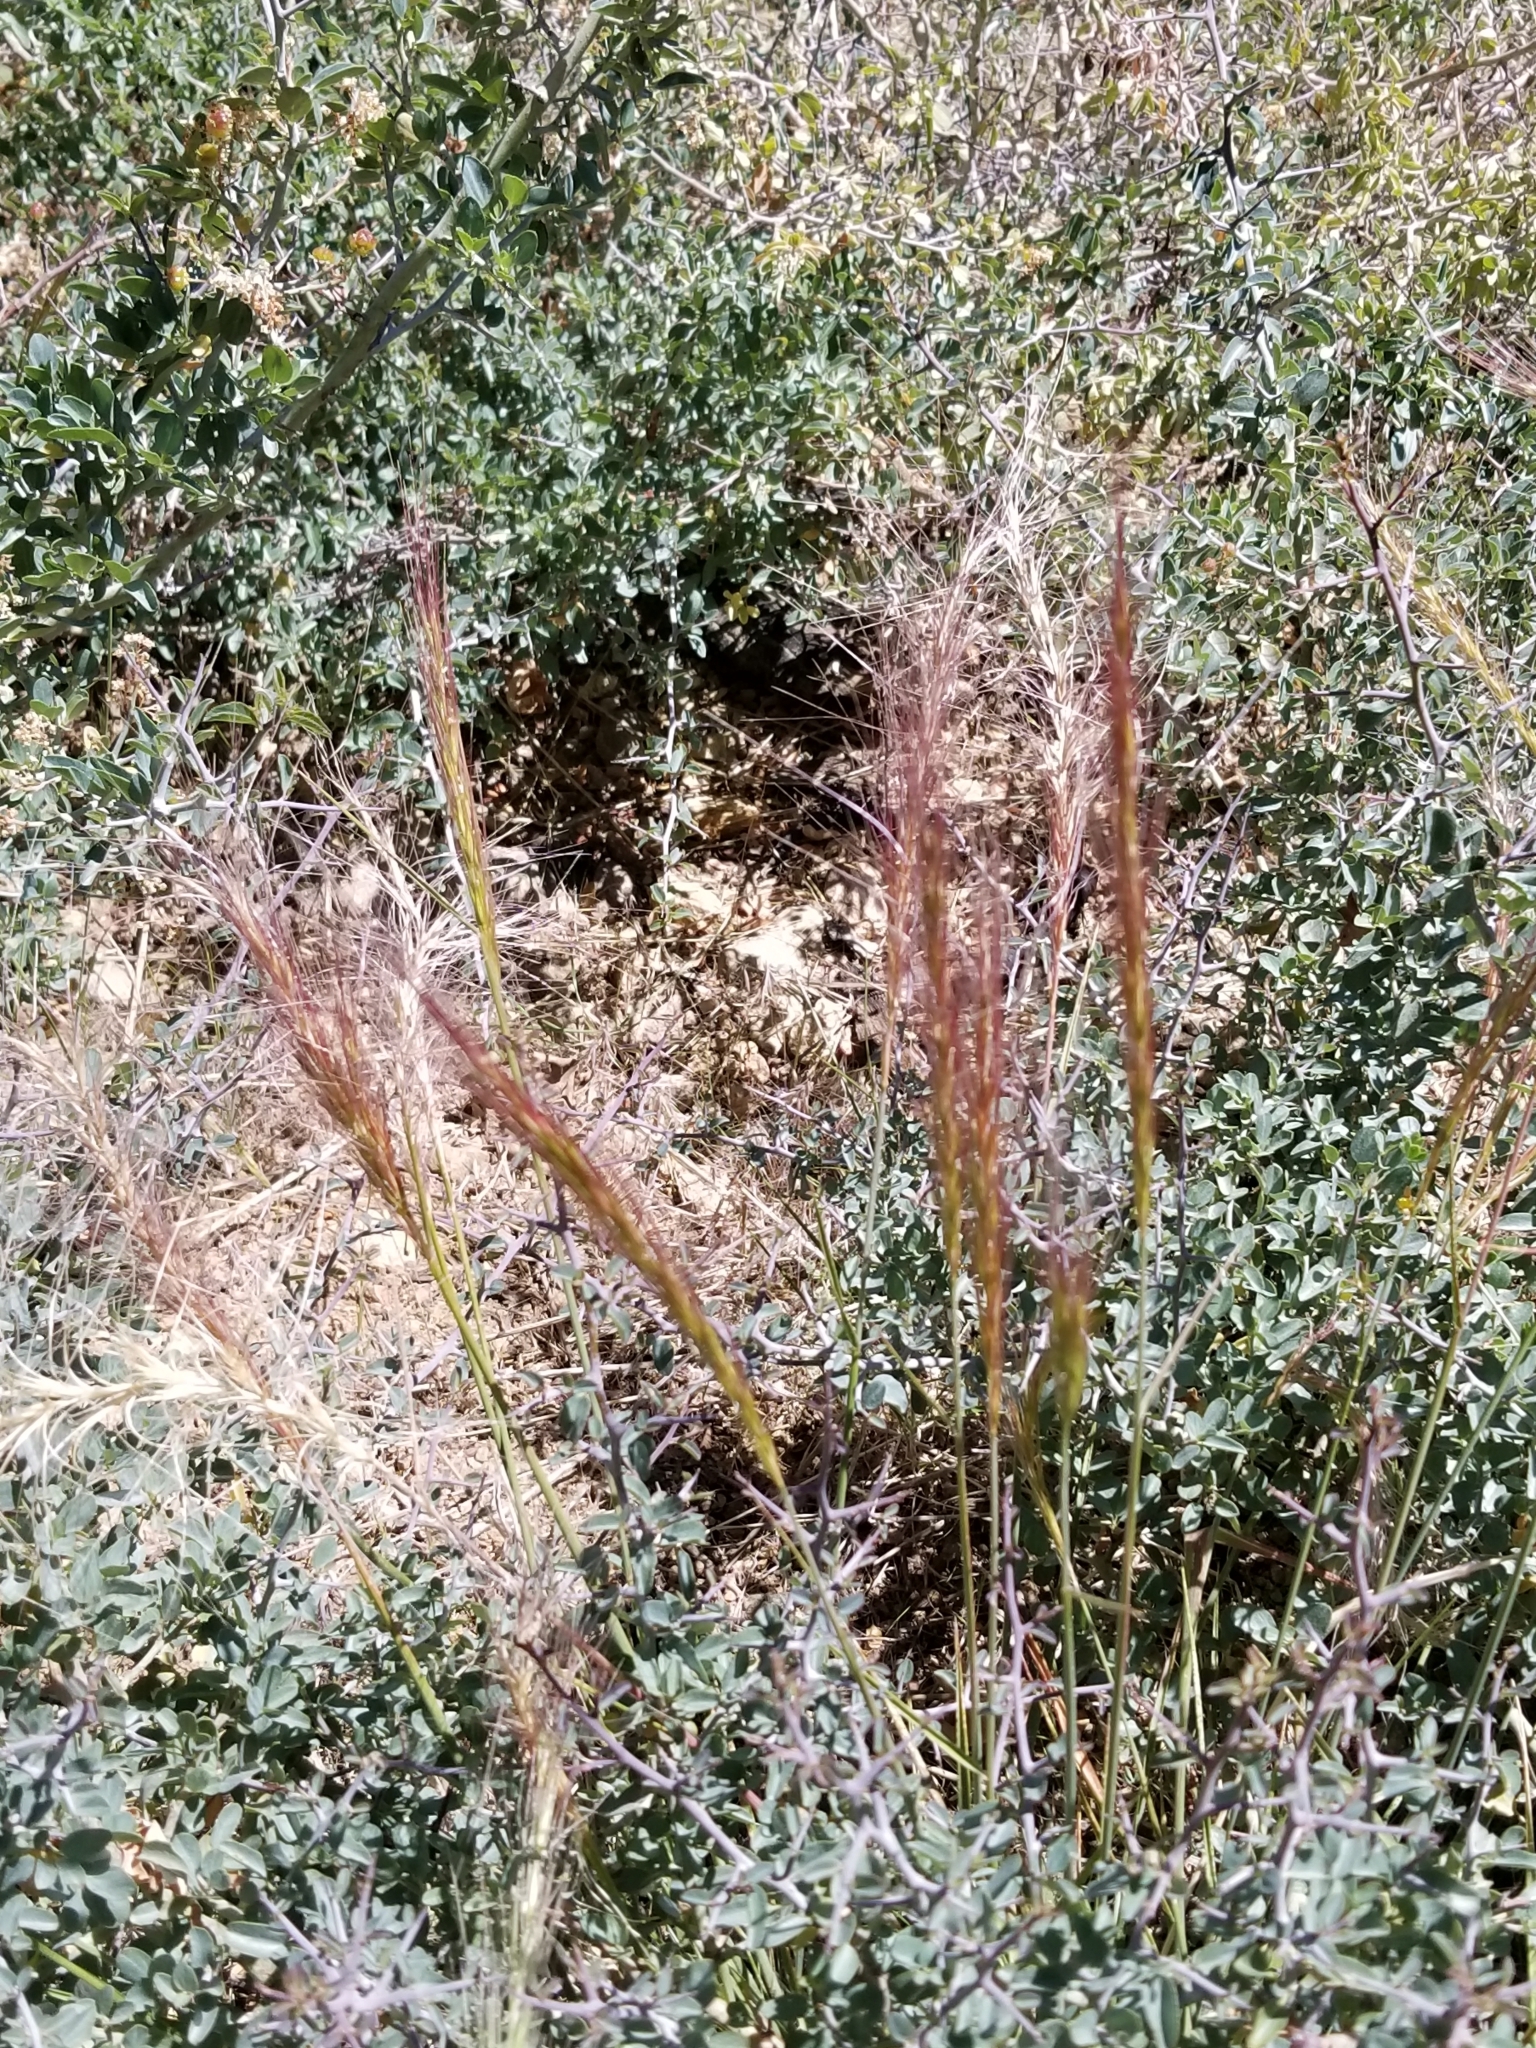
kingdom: Plantae
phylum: Tracheophyta
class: Liliopsida
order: Poales
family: Poaceae
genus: Elymus
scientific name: Elymus elymoides
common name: Bottlebrush squirreltail
